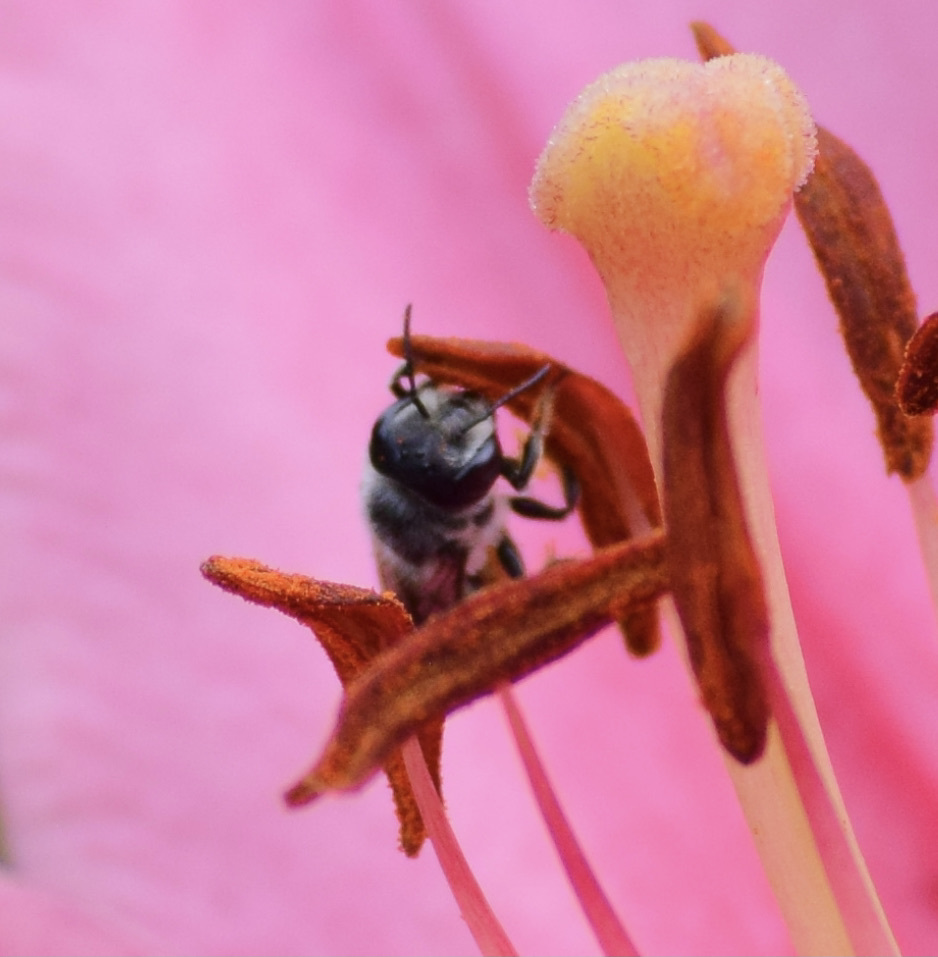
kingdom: Animalia
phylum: Arthropoda
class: Insecta
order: Hymenoptera
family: Megachilidae
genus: Megachile
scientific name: Megachile montivaga
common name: Silver-tailed petalcutter bee
